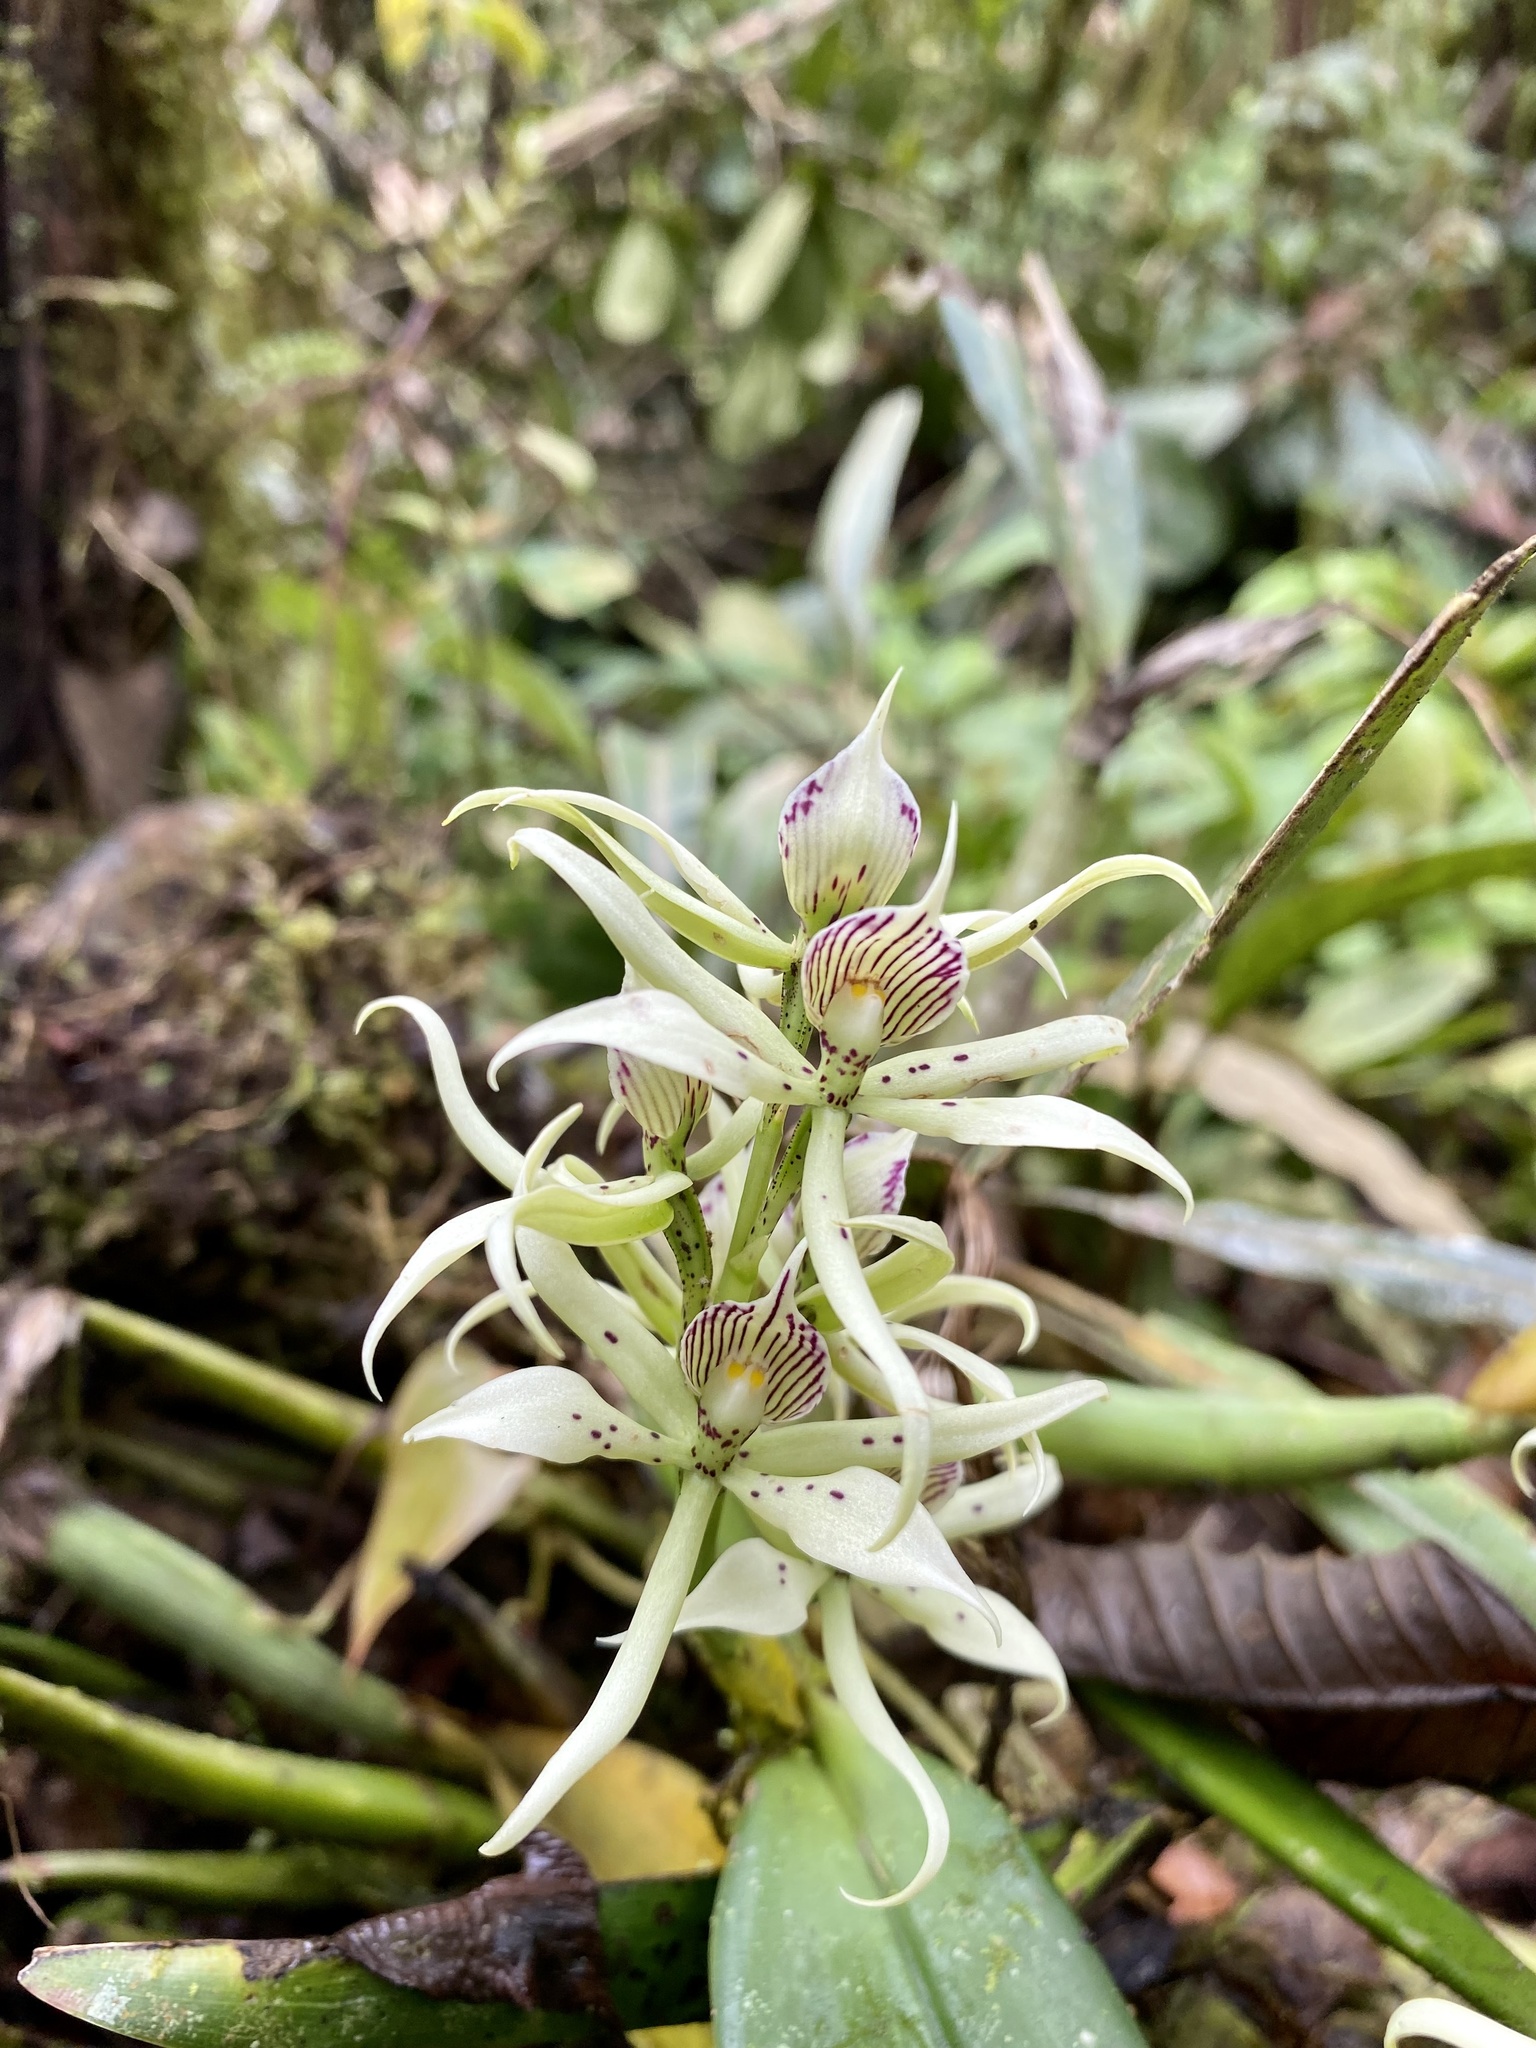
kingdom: Plantae
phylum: Tracheophyta
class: Liliopsida
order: Asparagales
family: Orchidaceae
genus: Prosthechea
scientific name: Prosthechea chimborazoensis
